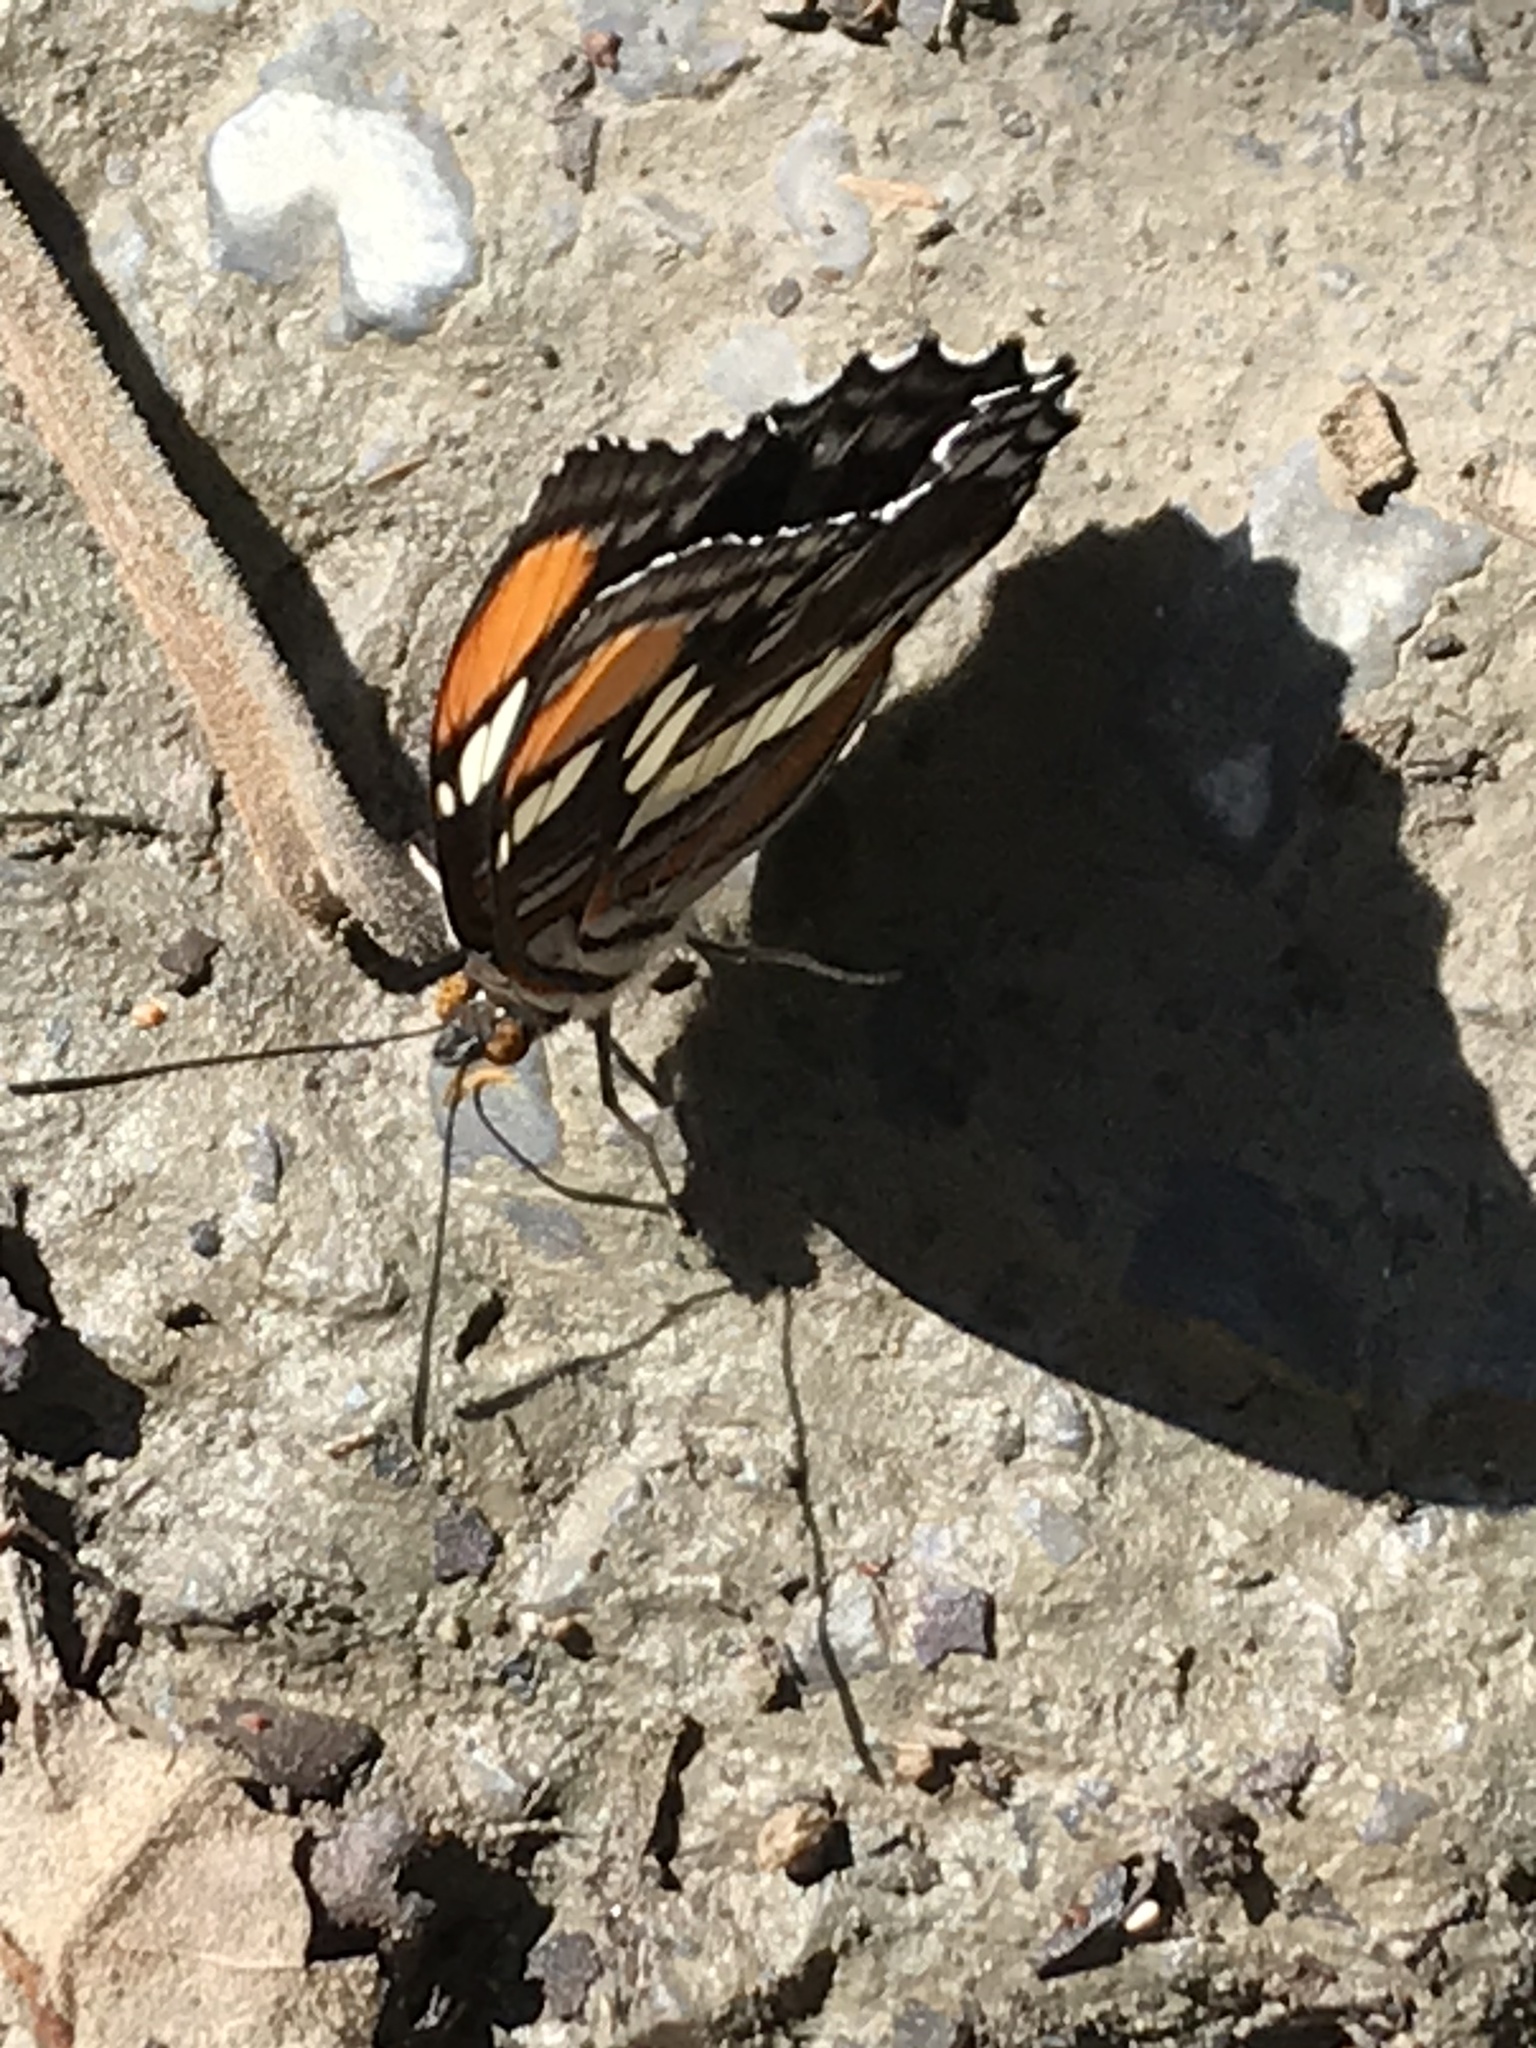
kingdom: Animalia
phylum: Arthropoda
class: Insecta
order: Lepidoptera
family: Nymphalidae
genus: Limenitis
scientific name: Limenitis bredowii
